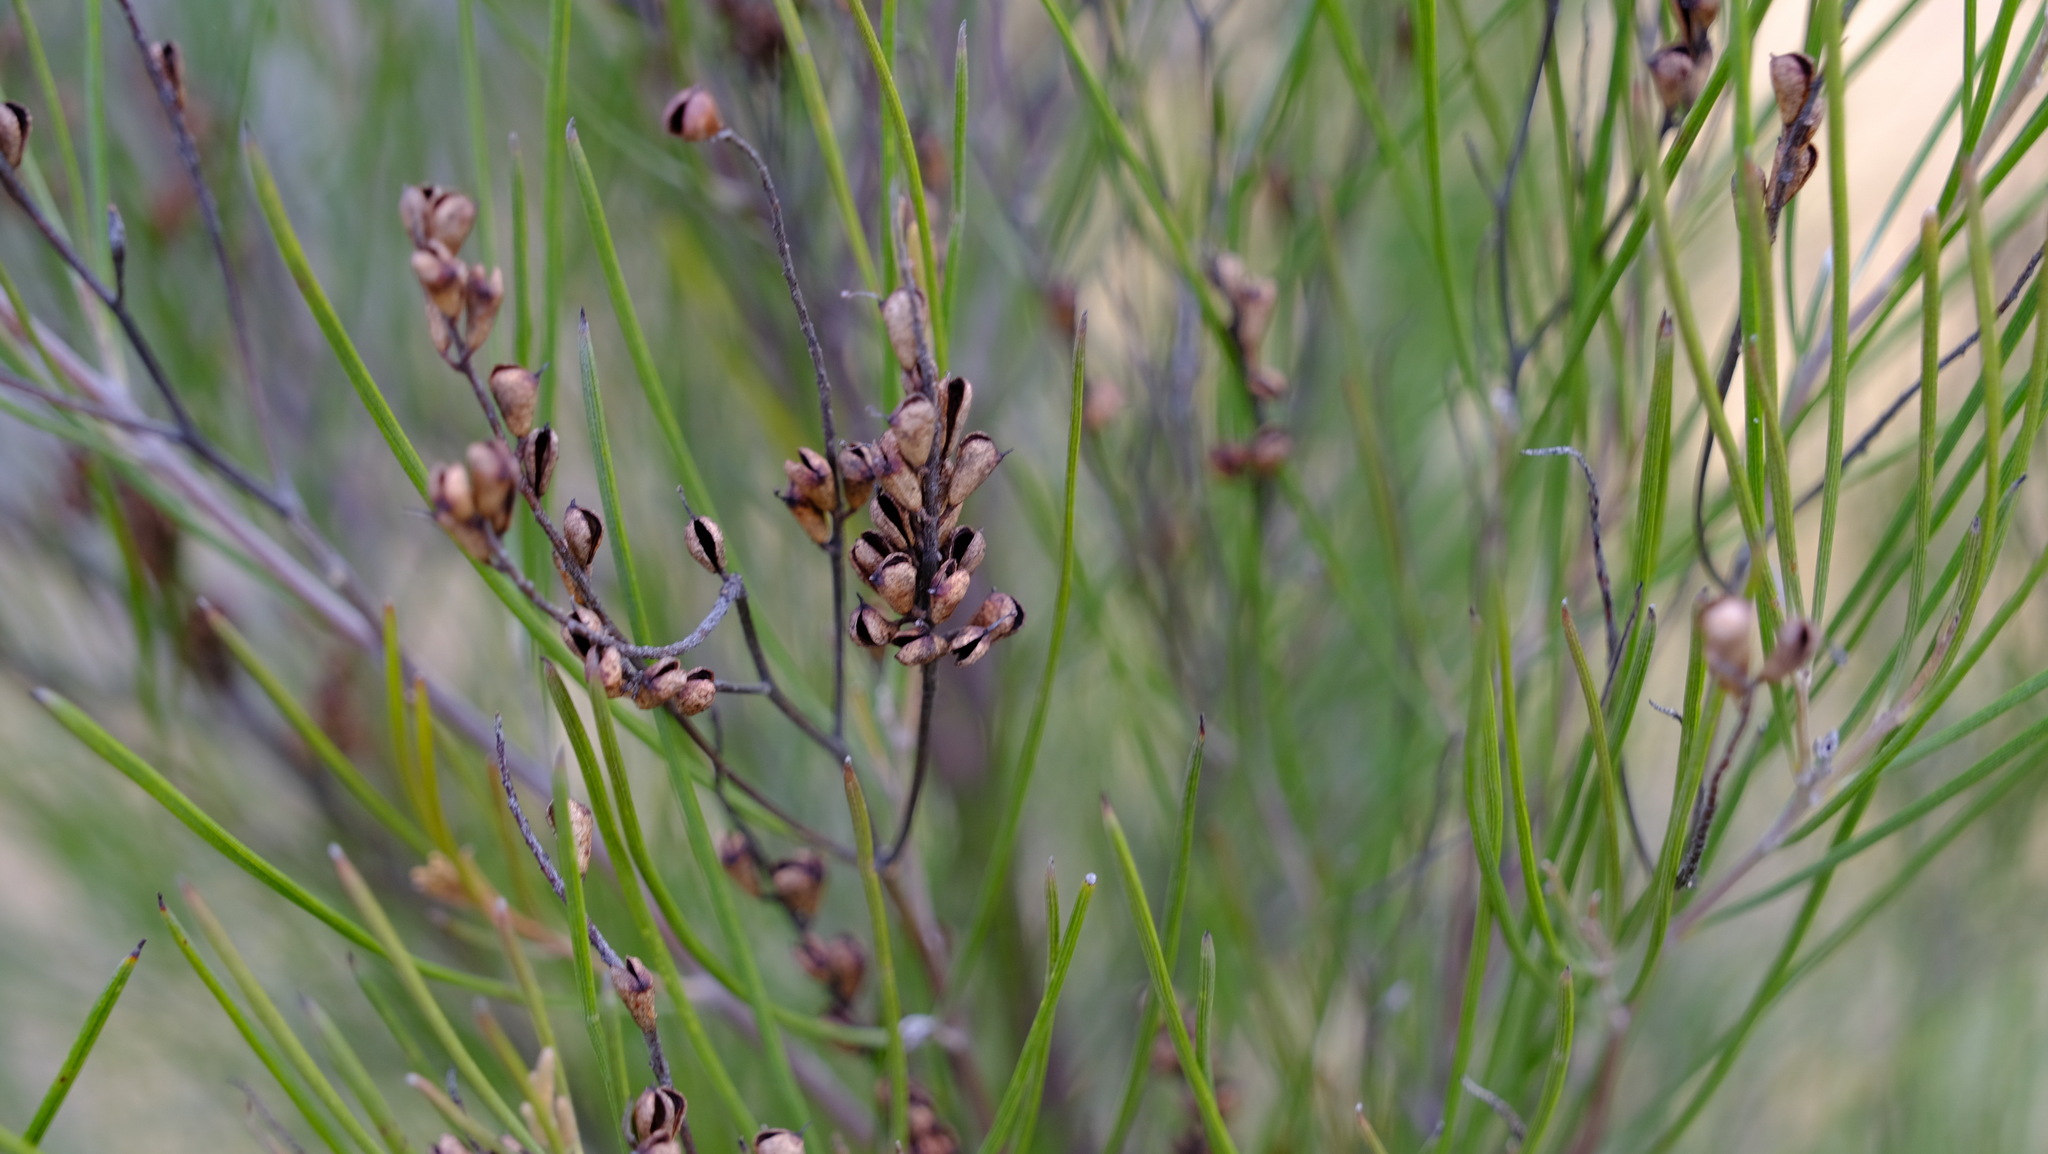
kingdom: Plantae
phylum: Tracheophyta
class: Magnoliopsida
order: Proteales
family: Proteaceae
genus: Grevillea
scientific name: Grevillea didymobotrya
